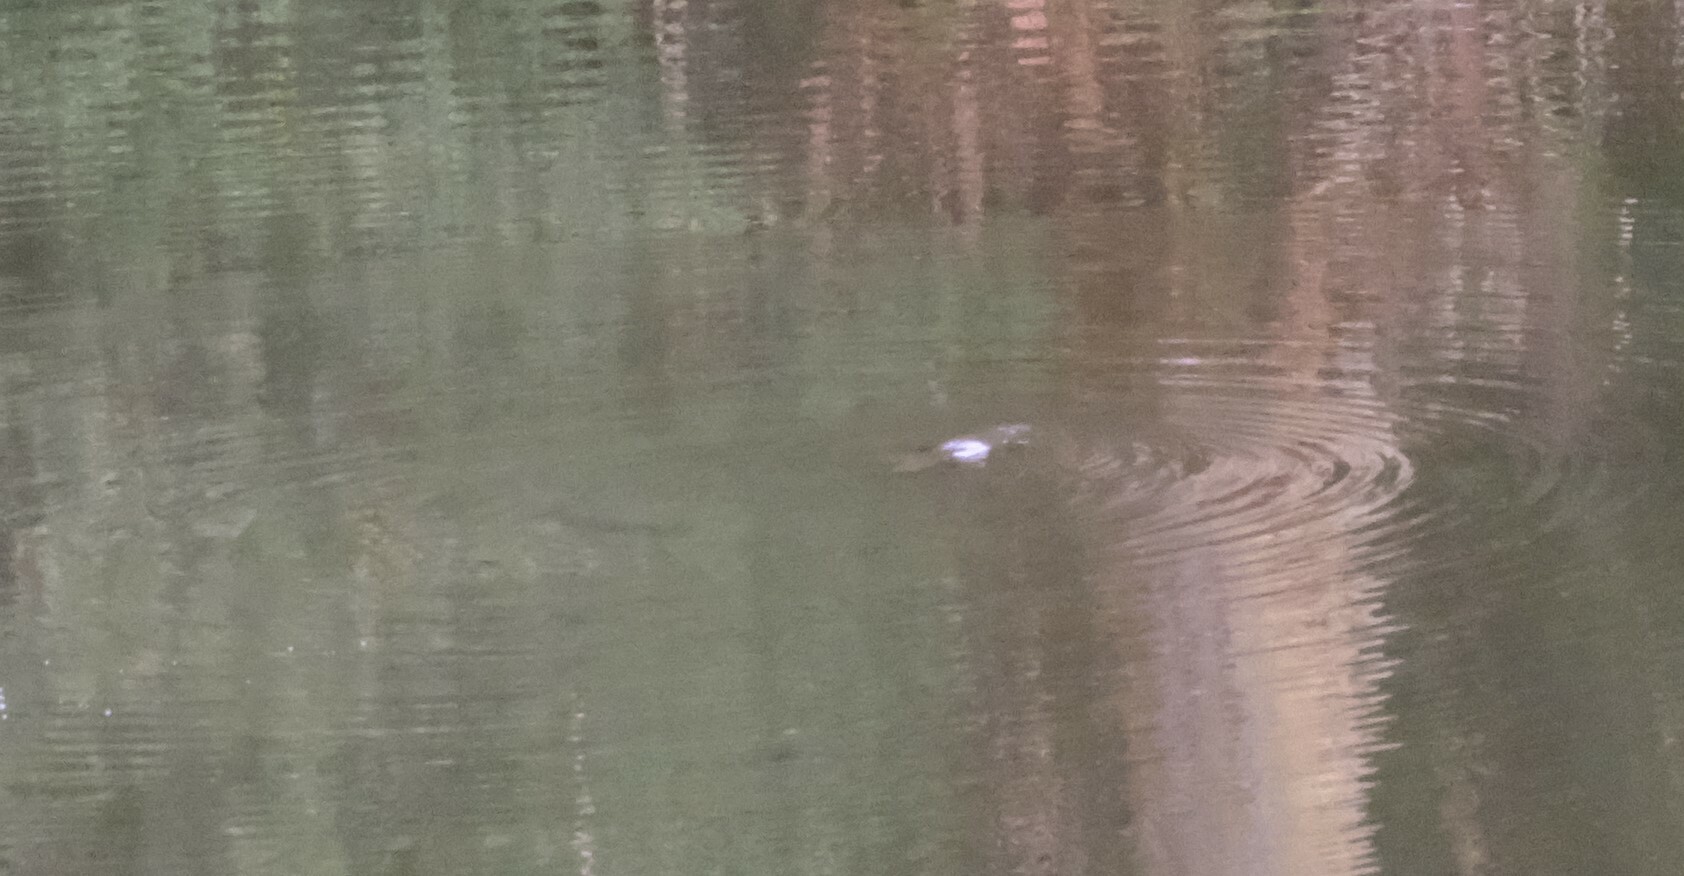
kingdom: Animalia
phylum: Chordata
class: Mammalia
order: Monotremata
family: Ornithorhynchidae
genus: Ornithorhynchus
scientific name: Ornithorhynchus anatinus
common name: Platypus
